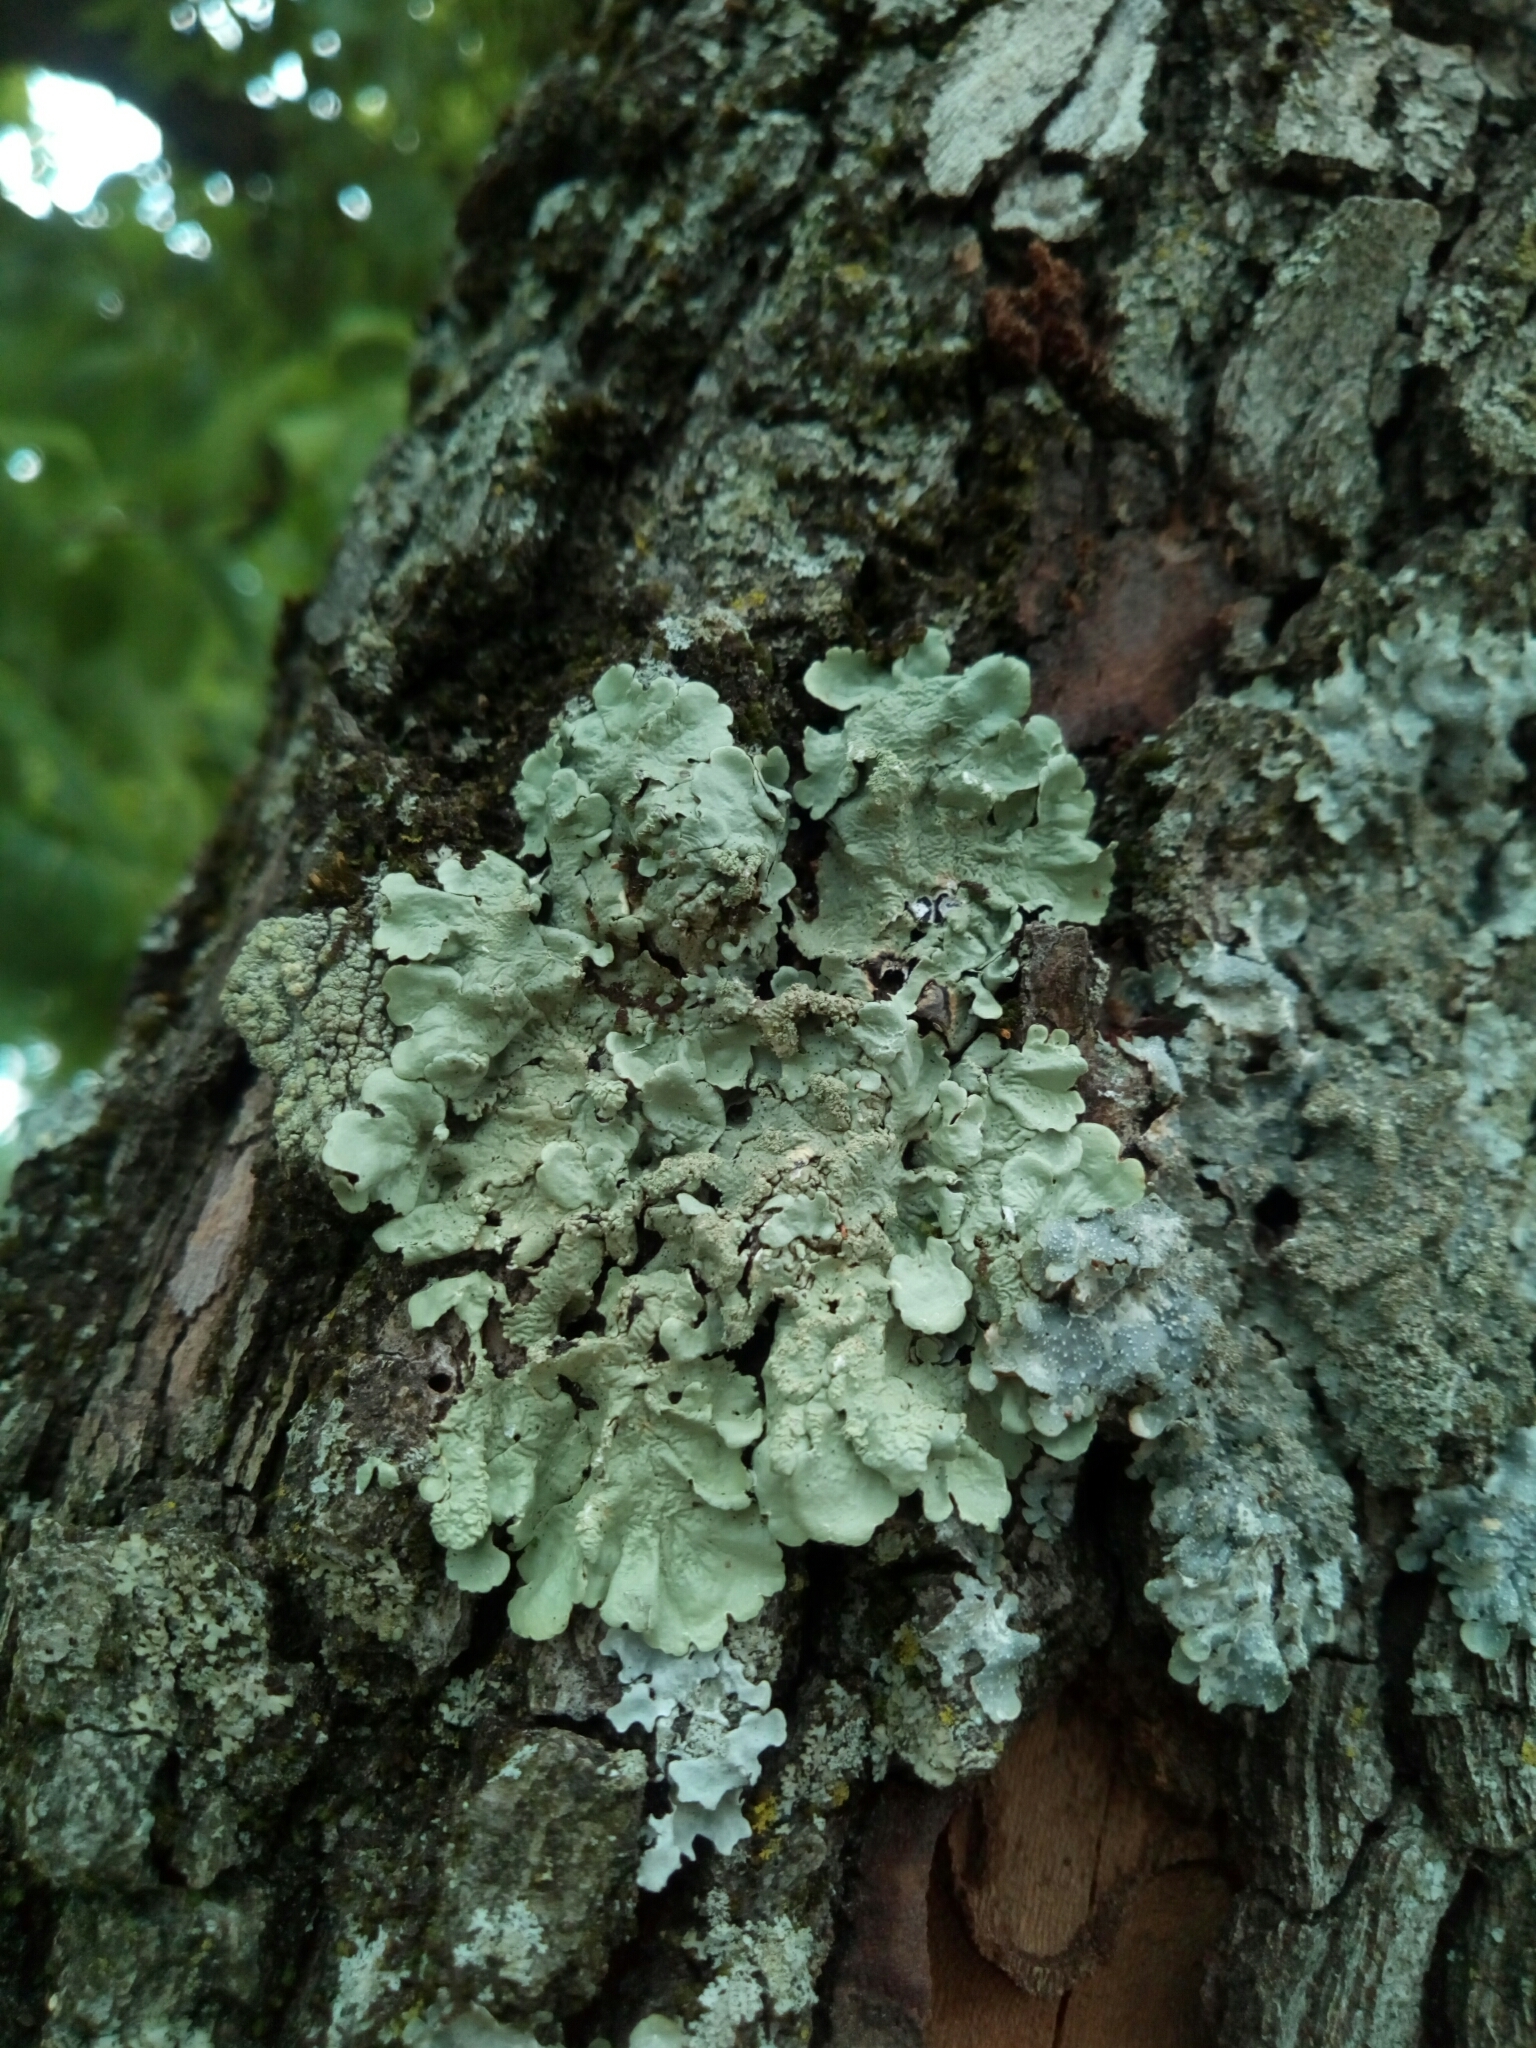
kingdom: Fungi
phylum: Ascomycota
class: Lecanoromycetes
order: Lecanorales
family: Parmeliaceae
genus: Flavoparmelia
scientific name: Flavoparmelia caperata
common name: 40-mile per hour lichen
